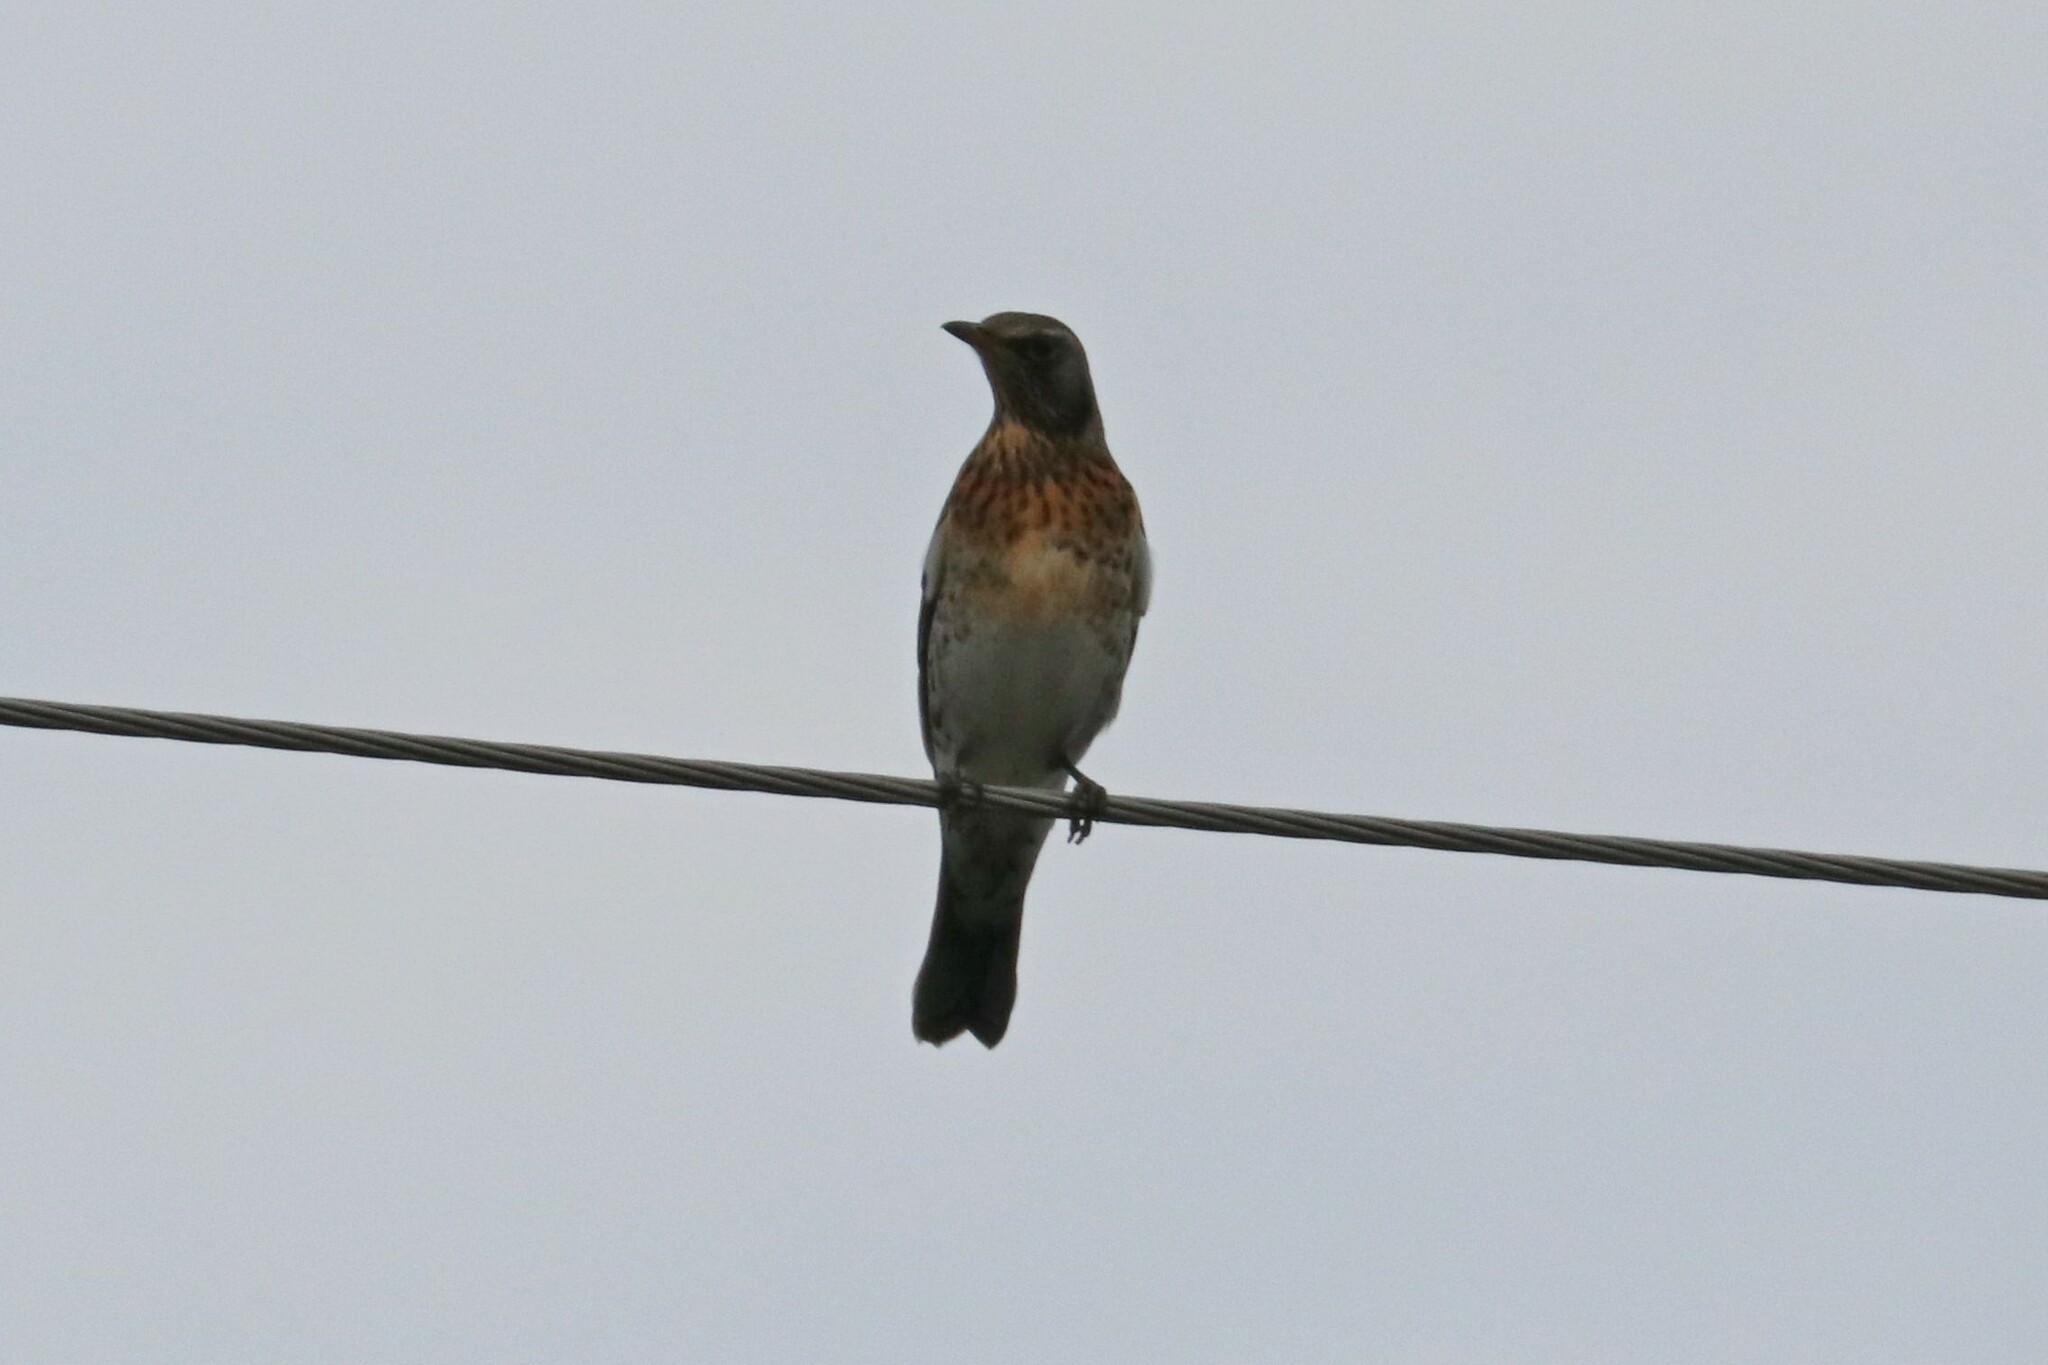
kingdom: Animalia
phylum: Chordata
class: Aves
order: Passeriformes
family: Turdidae
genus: Turdus
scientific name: Turdus pilaris
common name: Fieldfare
